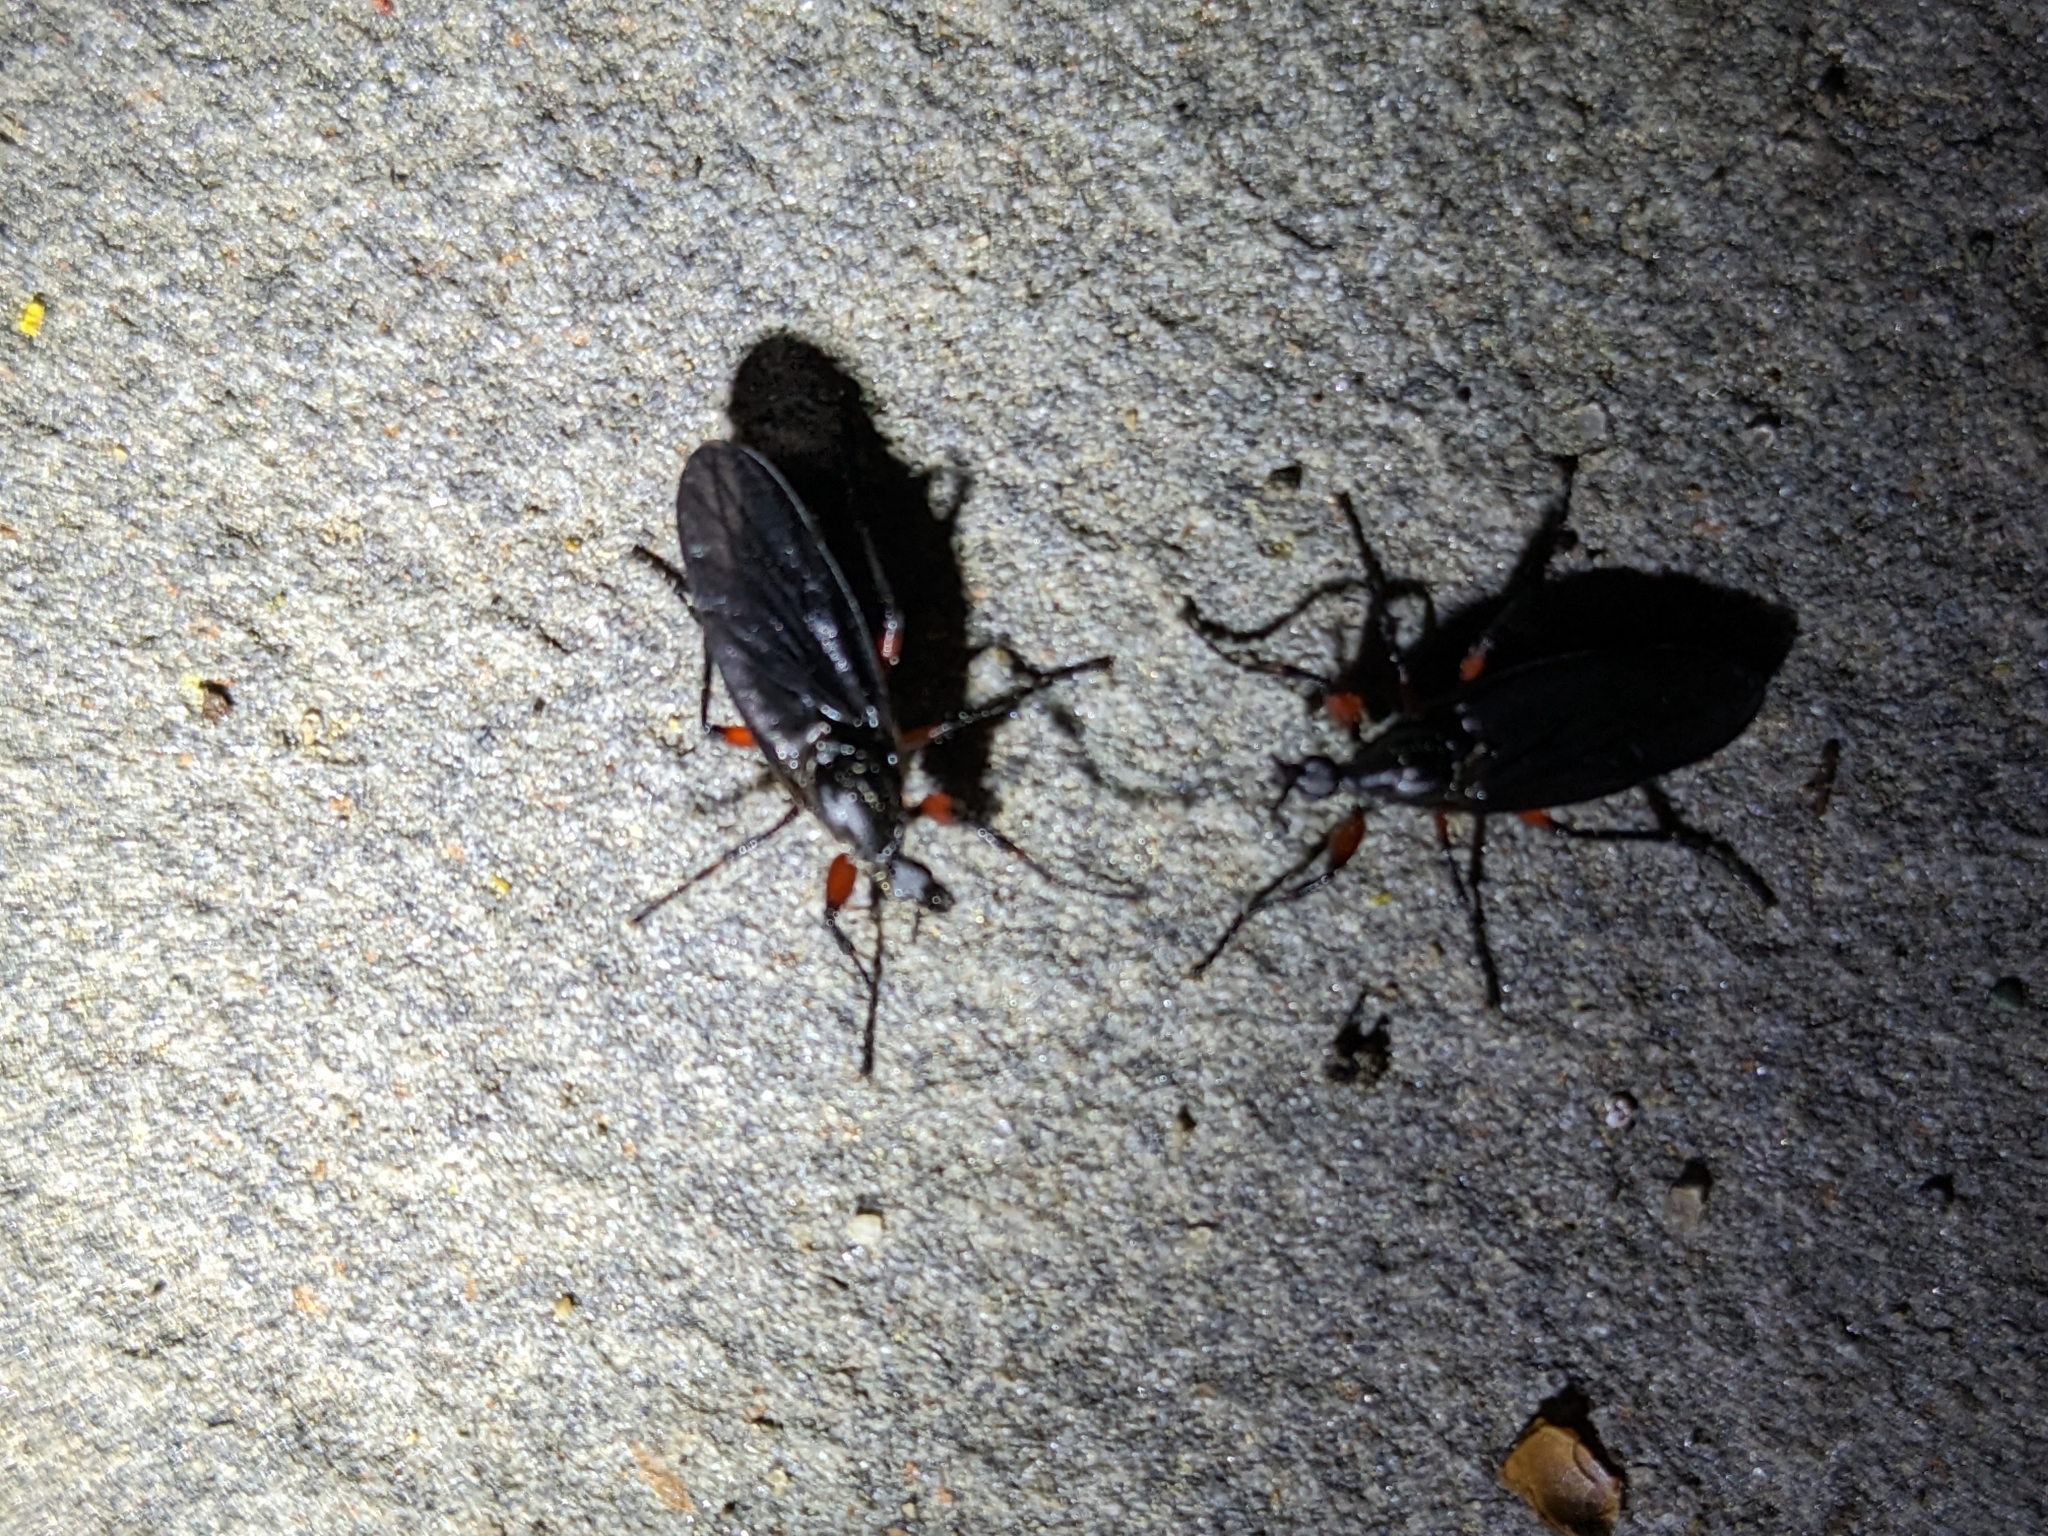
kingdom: Animalia
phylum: Arthropoda
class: Insecta
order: Diptera
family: Bibionidae
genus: Bibio
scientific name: Bibio femoratus
